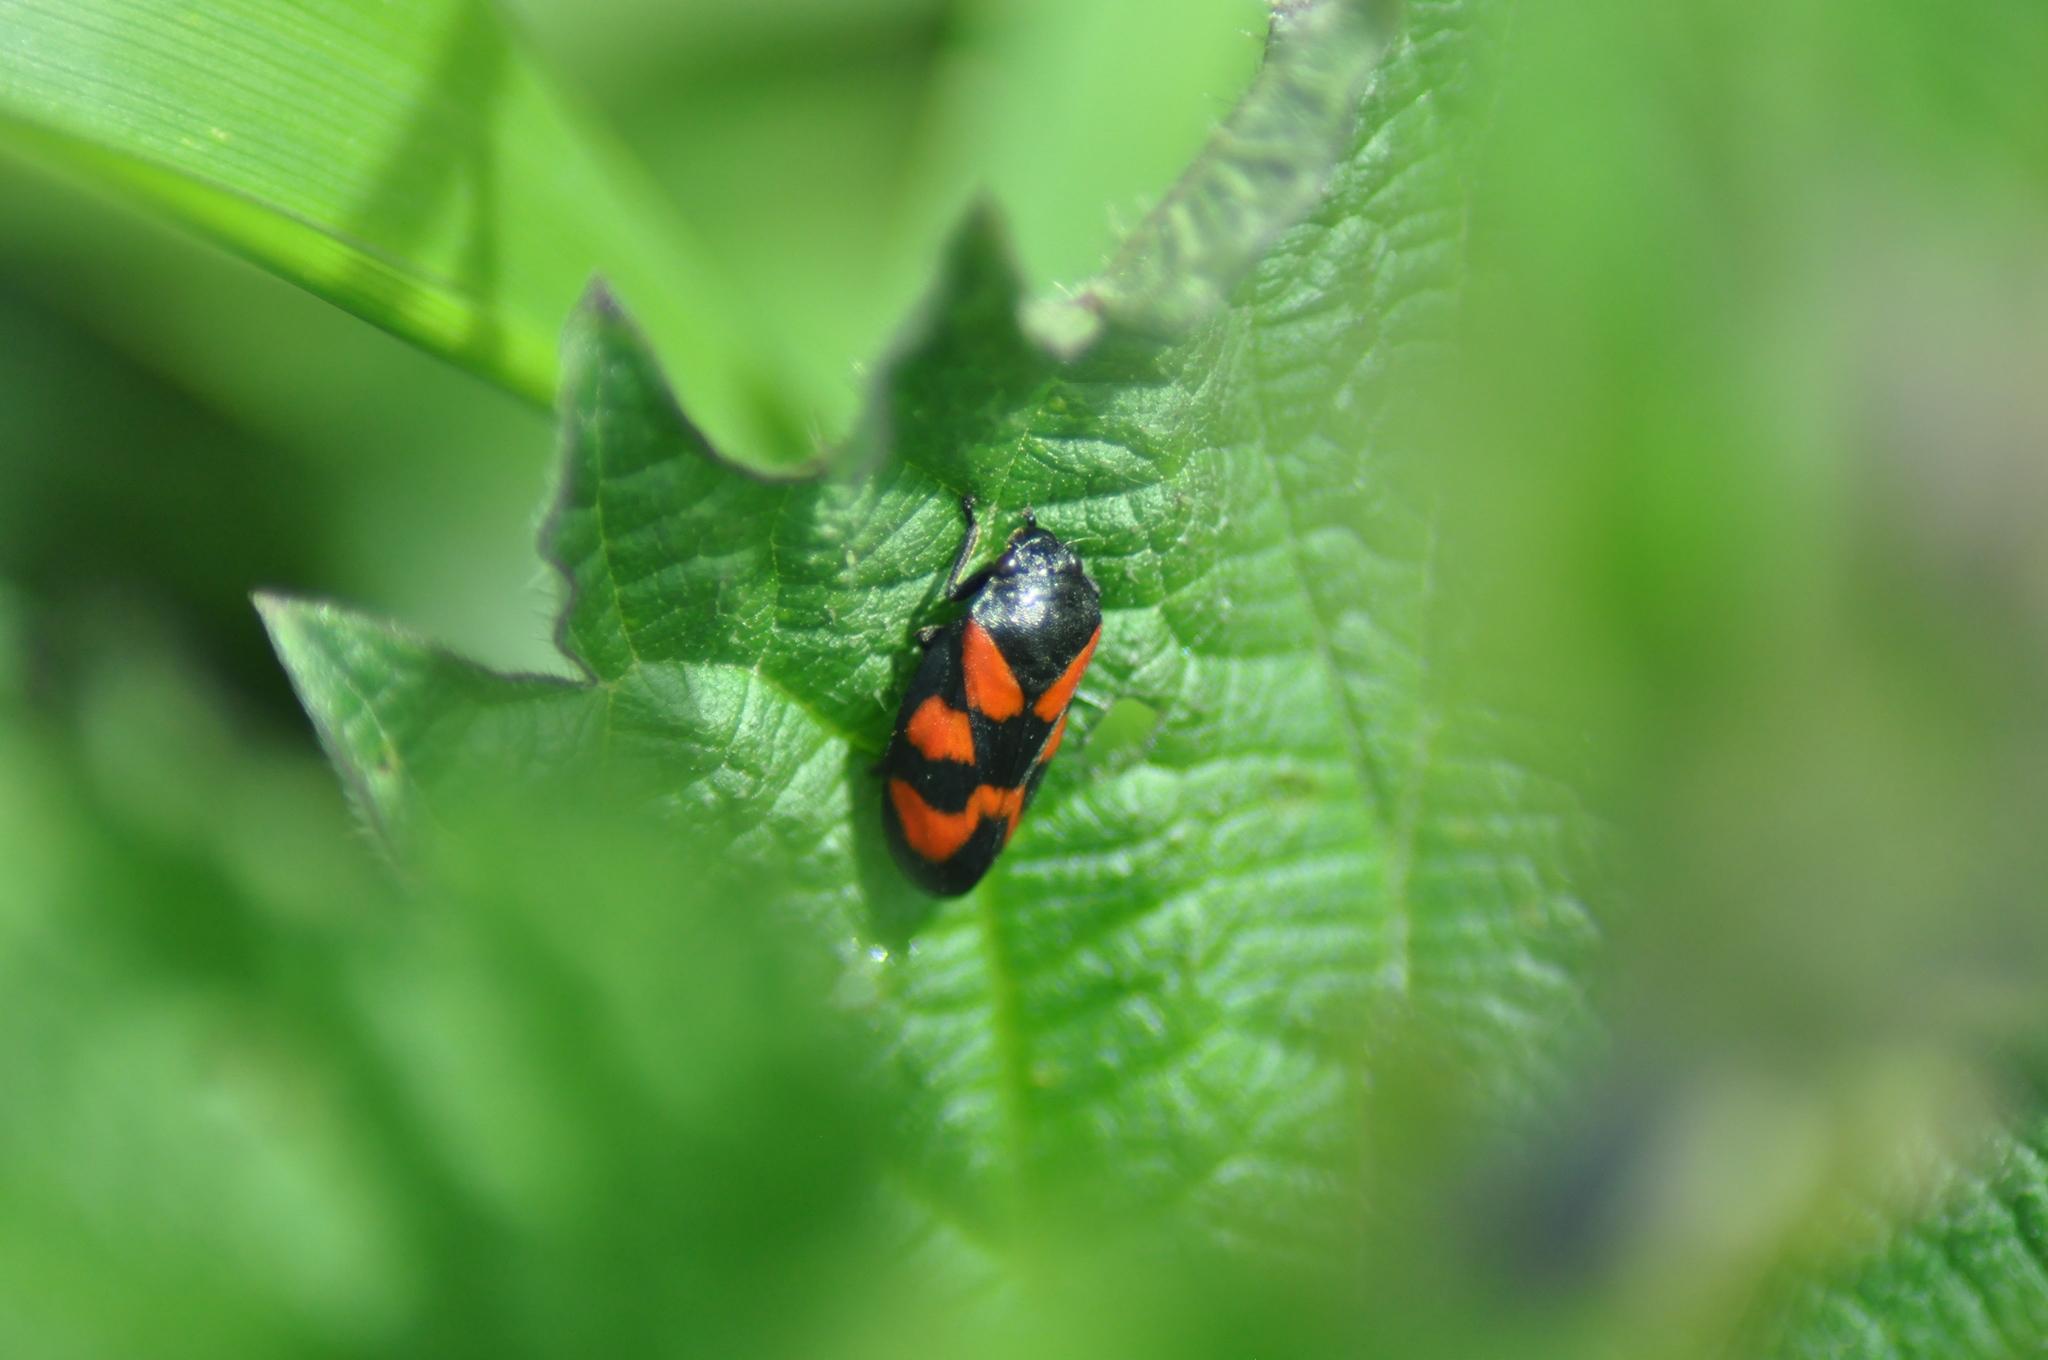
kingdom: Animalia
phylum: Arthropoda
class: Insecta
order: Hemiptera
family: Cercopidae
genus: Cercopis
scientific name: Cercopis vulnerata
